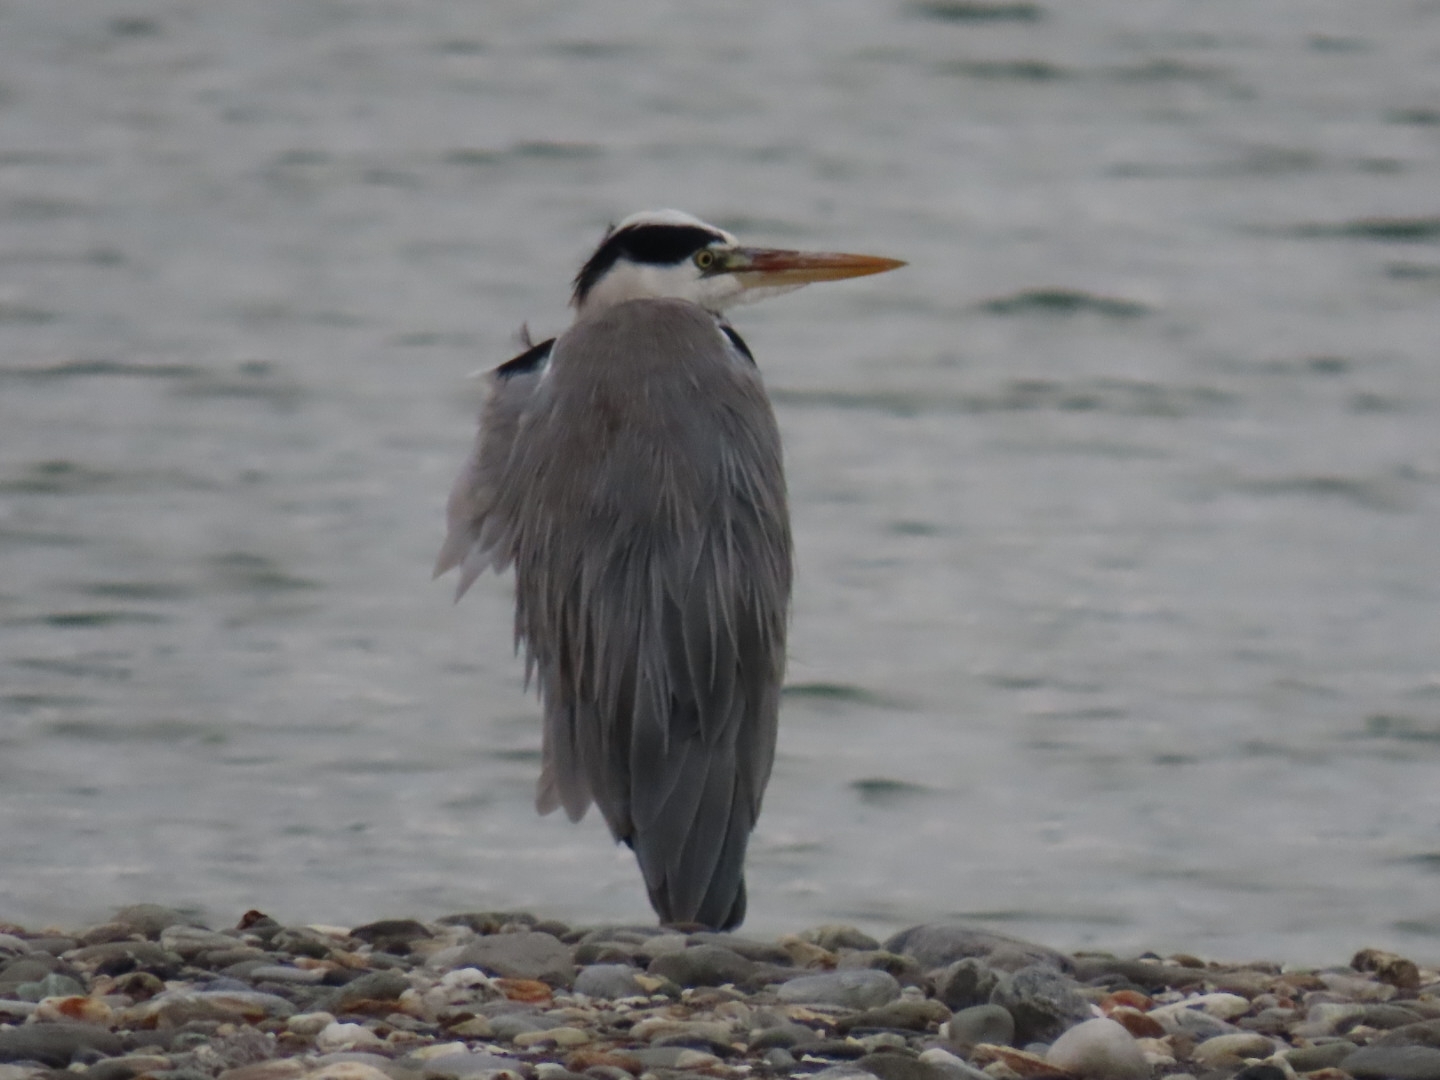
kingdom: Animalia
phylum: Chordata
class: Aves
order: Pelecaniformes
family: Ardeidae
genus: Ardea
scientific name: Ardea cinerea
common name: Grey heron
